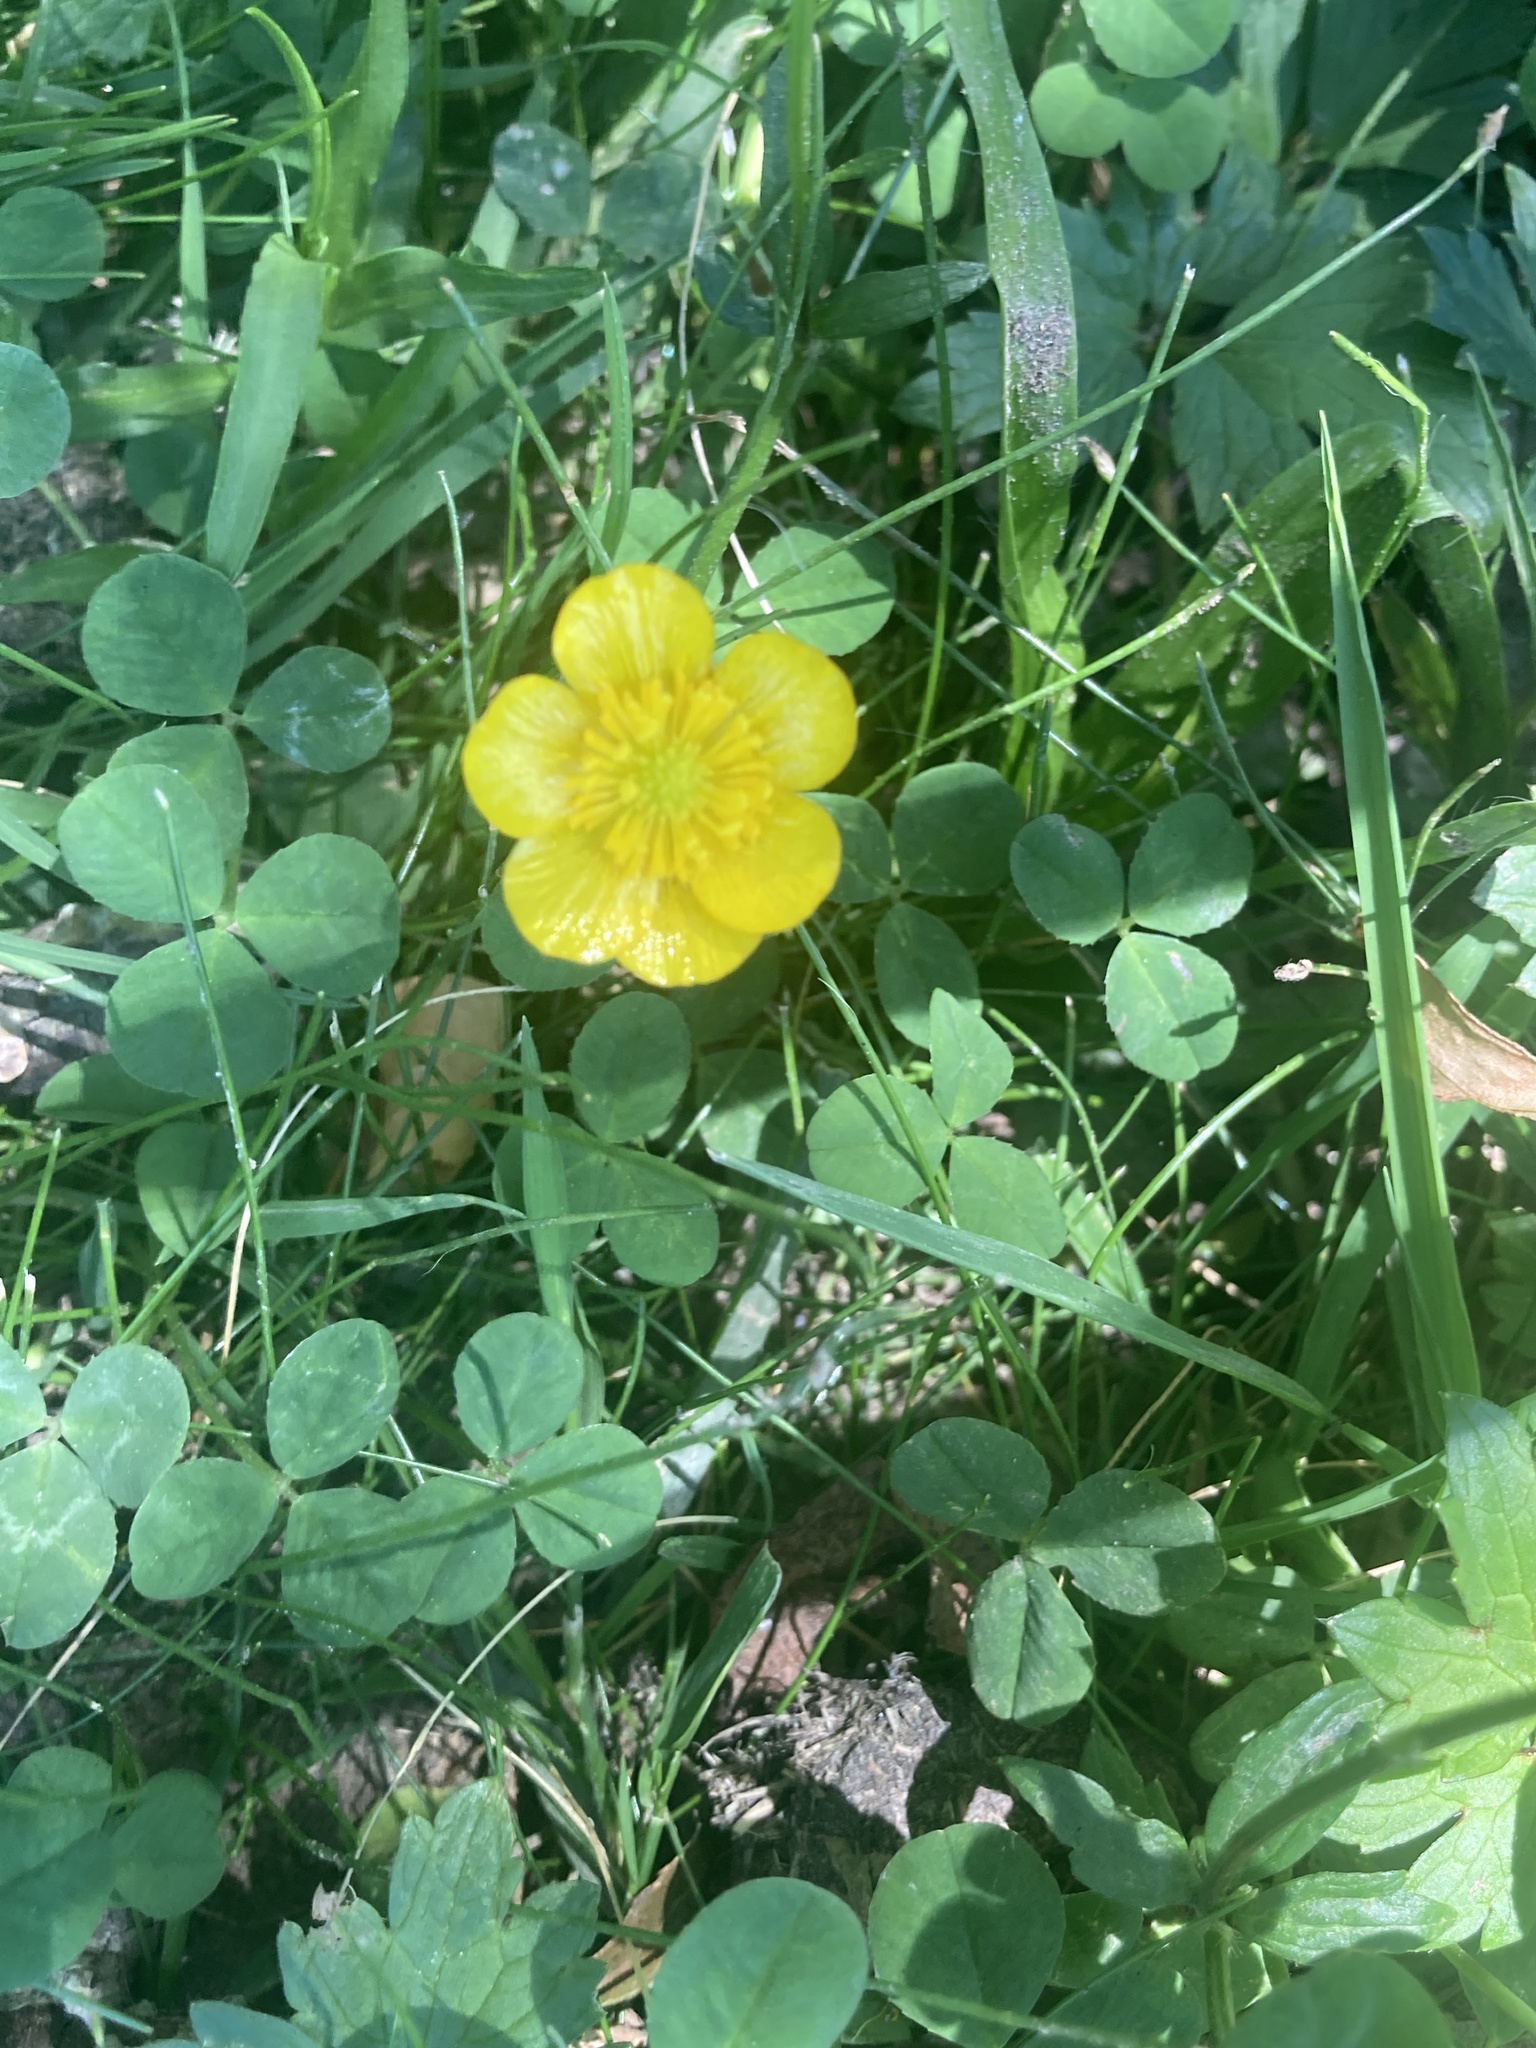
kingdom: Plantae
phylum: Tracheophyta
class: Magnoliopsida
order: Ranunculales
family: Ranunculaceae
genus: Ranunculus
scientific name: Ranunculus repens
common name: Creeping buttercup
